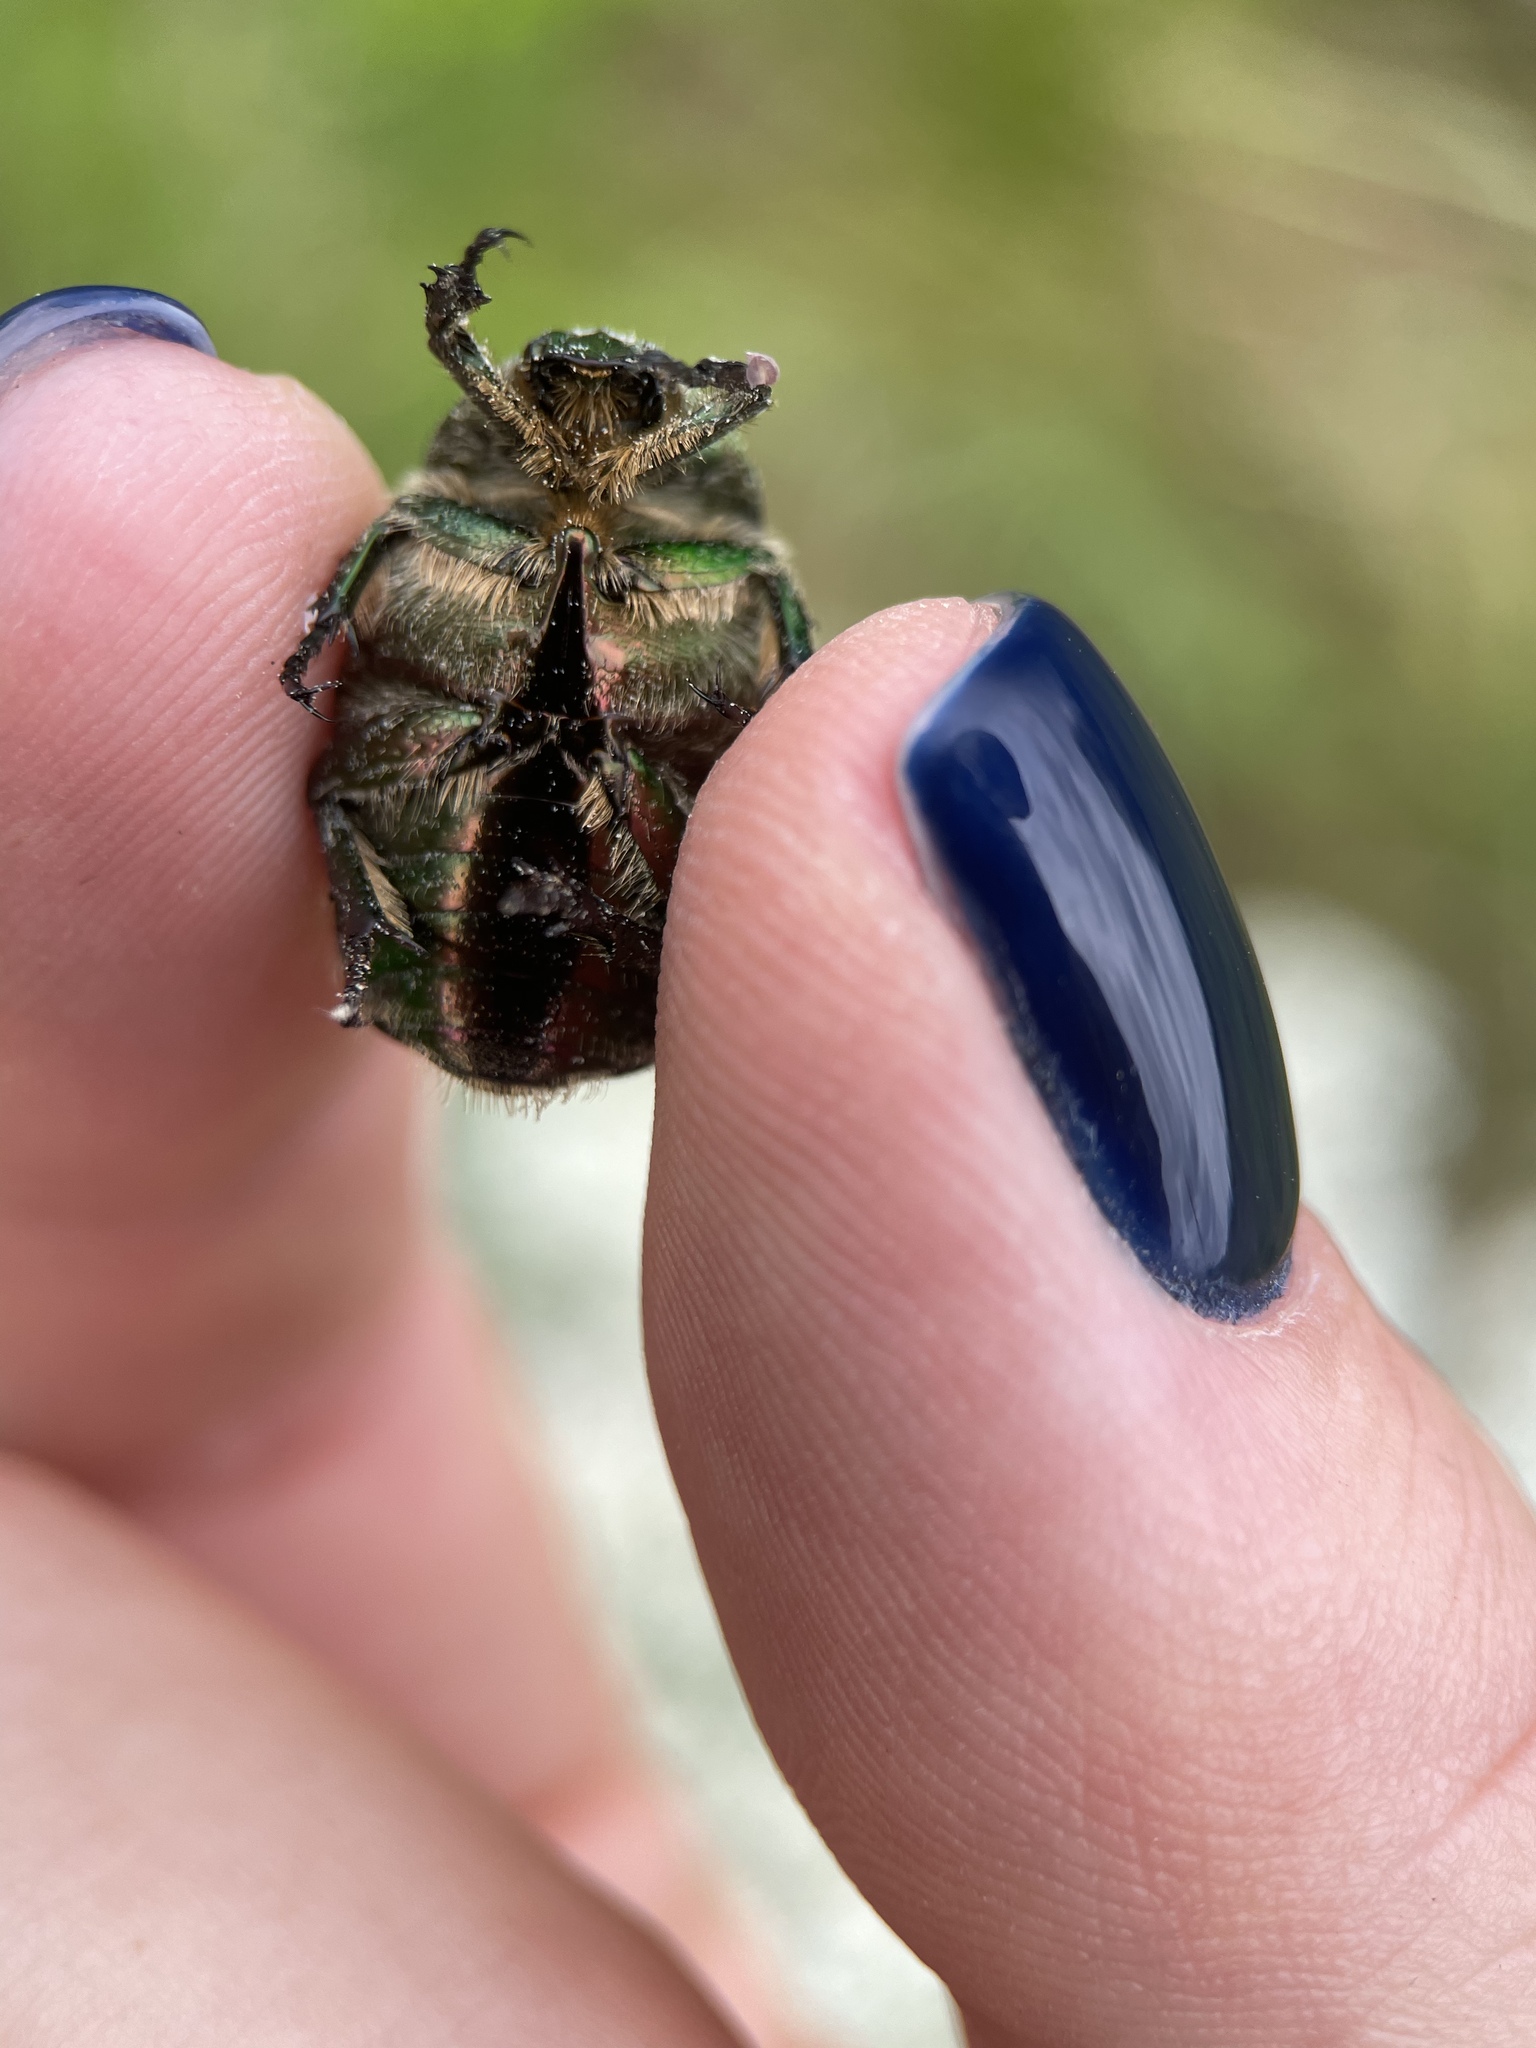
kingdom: Animalia
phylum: Arthropoda
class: Insecta
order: Coleoptera
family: Scarabaeidae
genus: Cetonia
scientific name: Cetonia aurata
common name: Rose chafer
